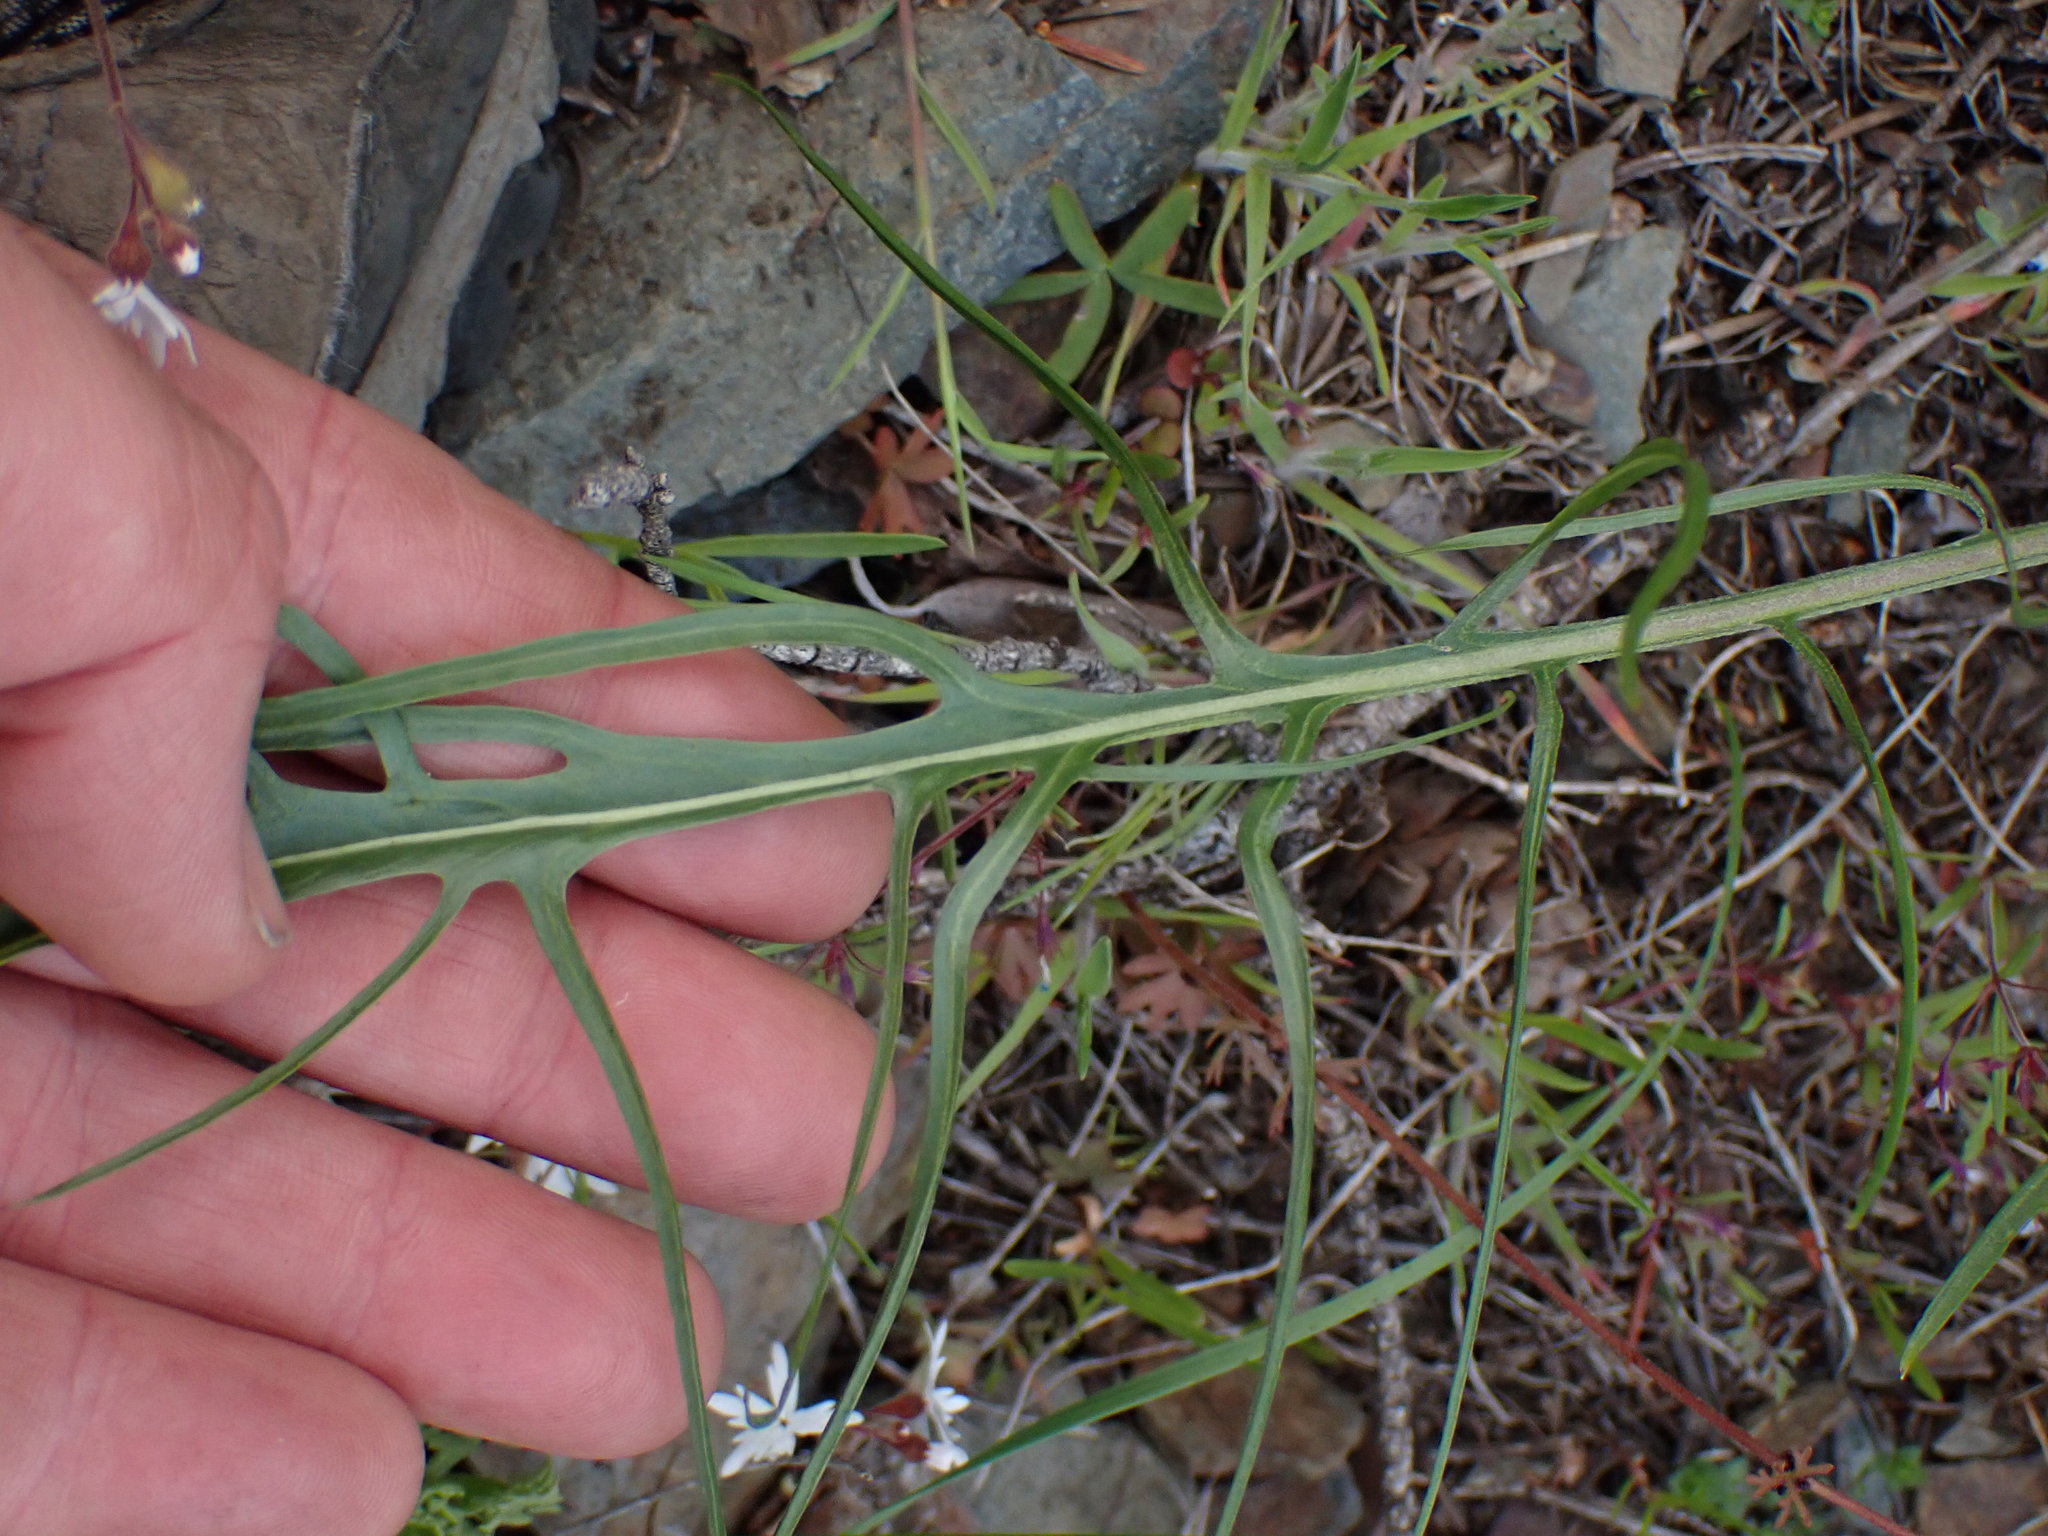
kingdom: Plantae
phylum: Tracheophyta
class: Magnoliopsida
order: Asterales
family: Asteraceae
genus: Crepis
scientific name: Crepis atribarba
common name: Dark hawk's-beard
